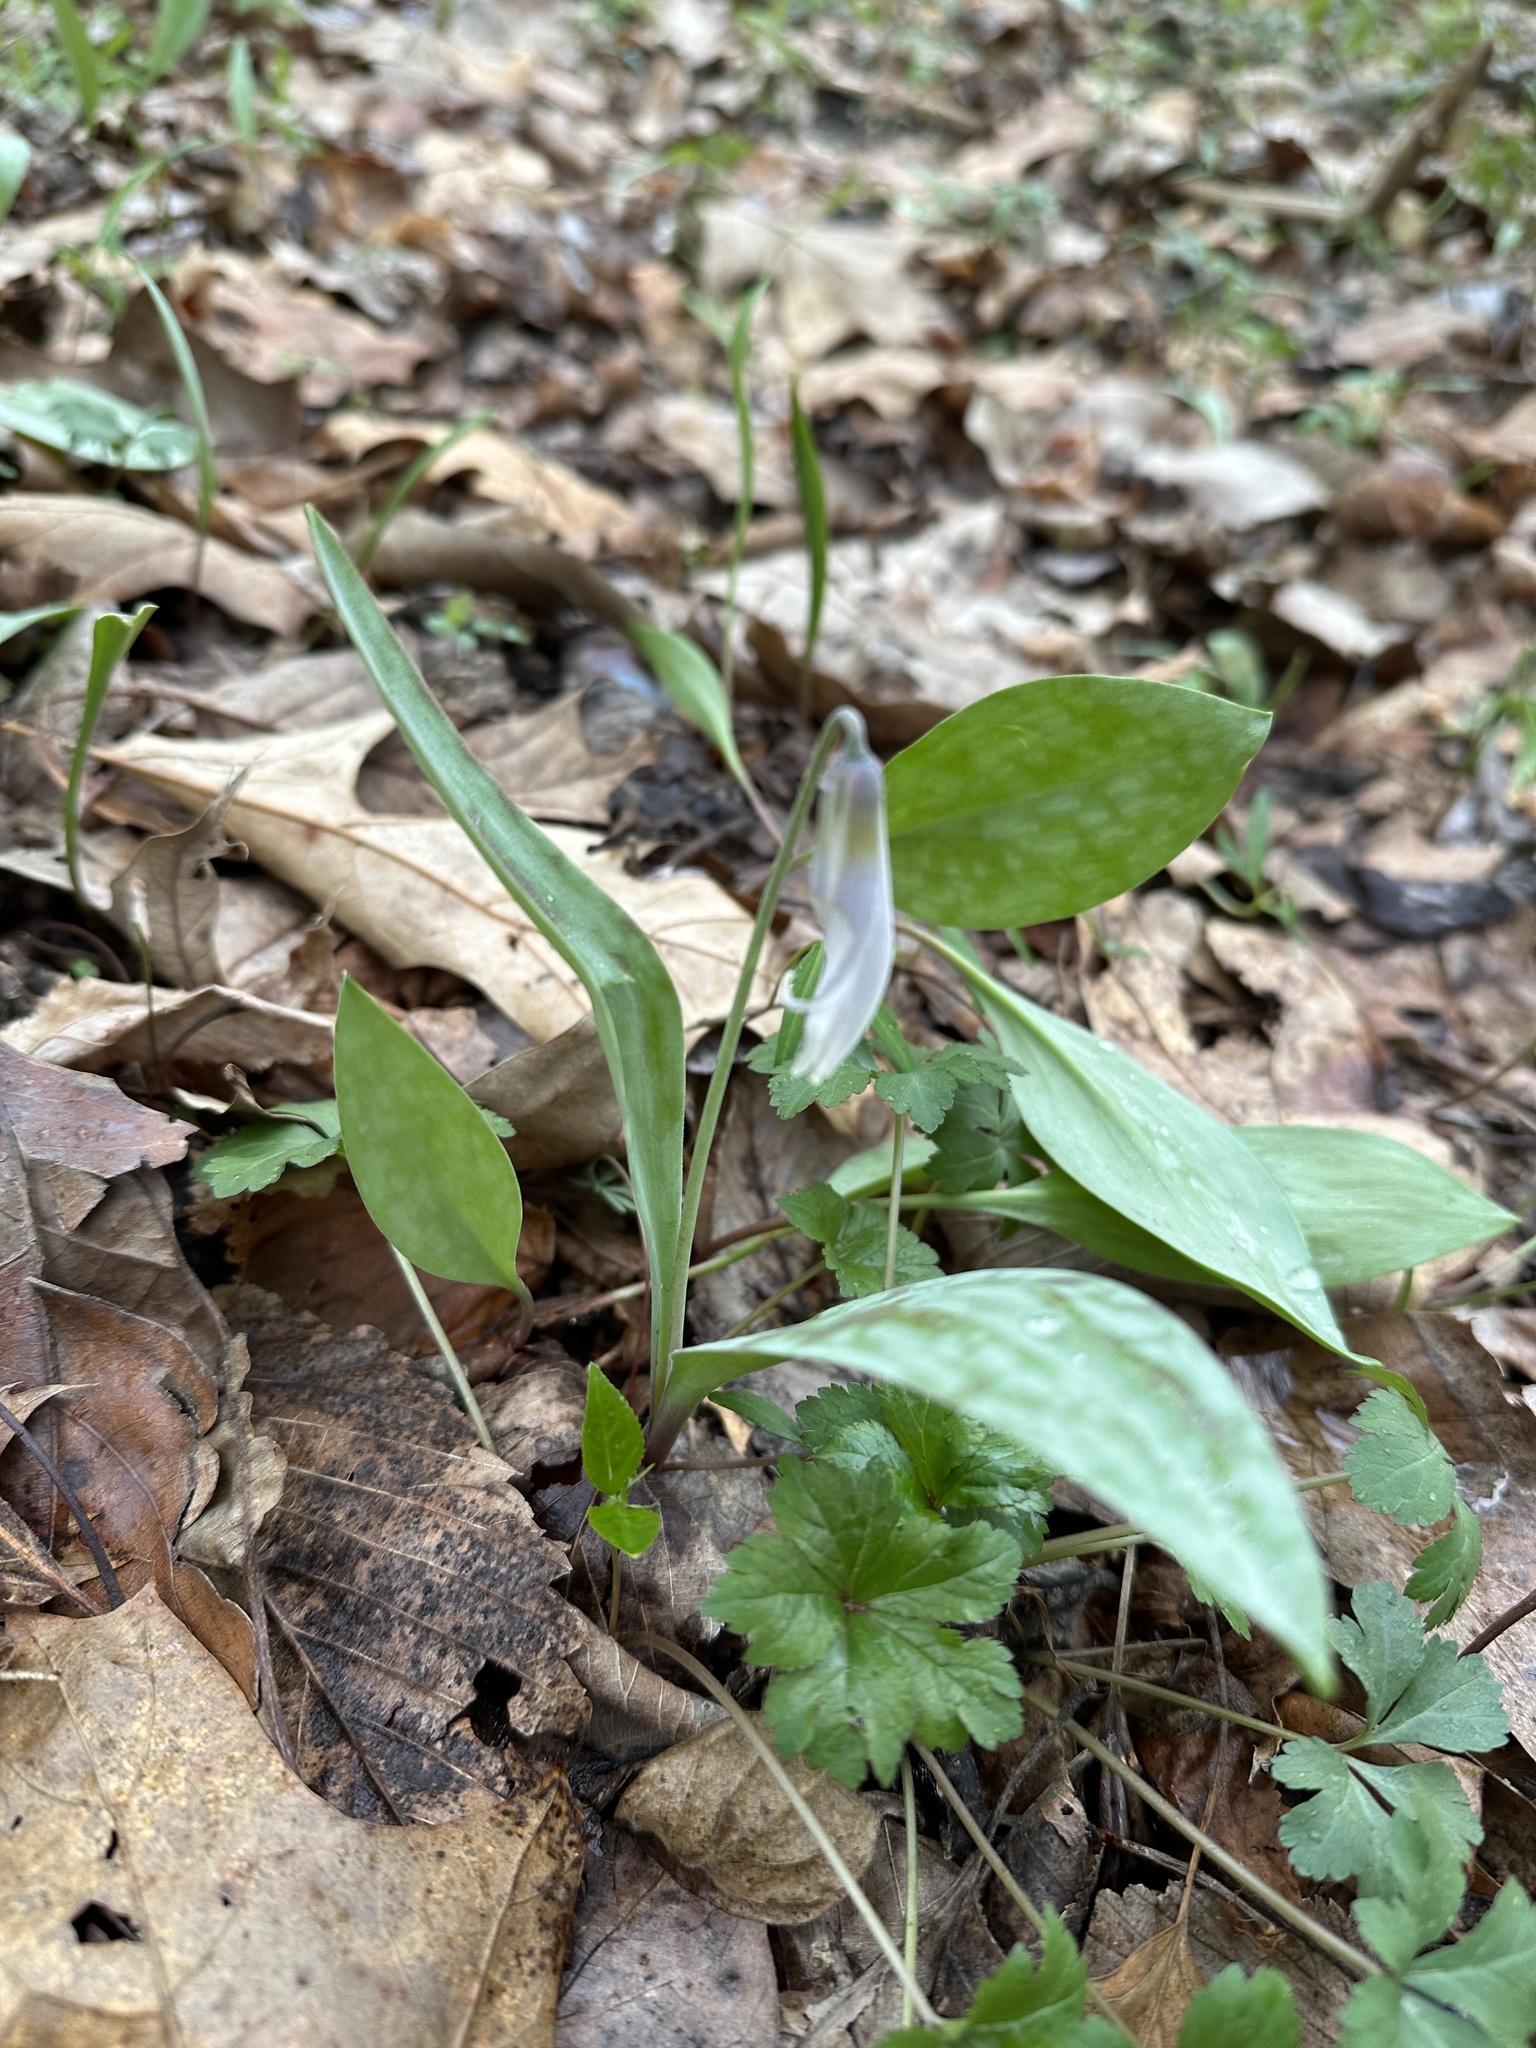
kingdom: Plantae
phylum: Tracheophyta
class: Liliopsida
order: Liliales
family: Liliaceae
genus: Erythronium
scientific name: Erythronium albidum
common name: White trout-lily
